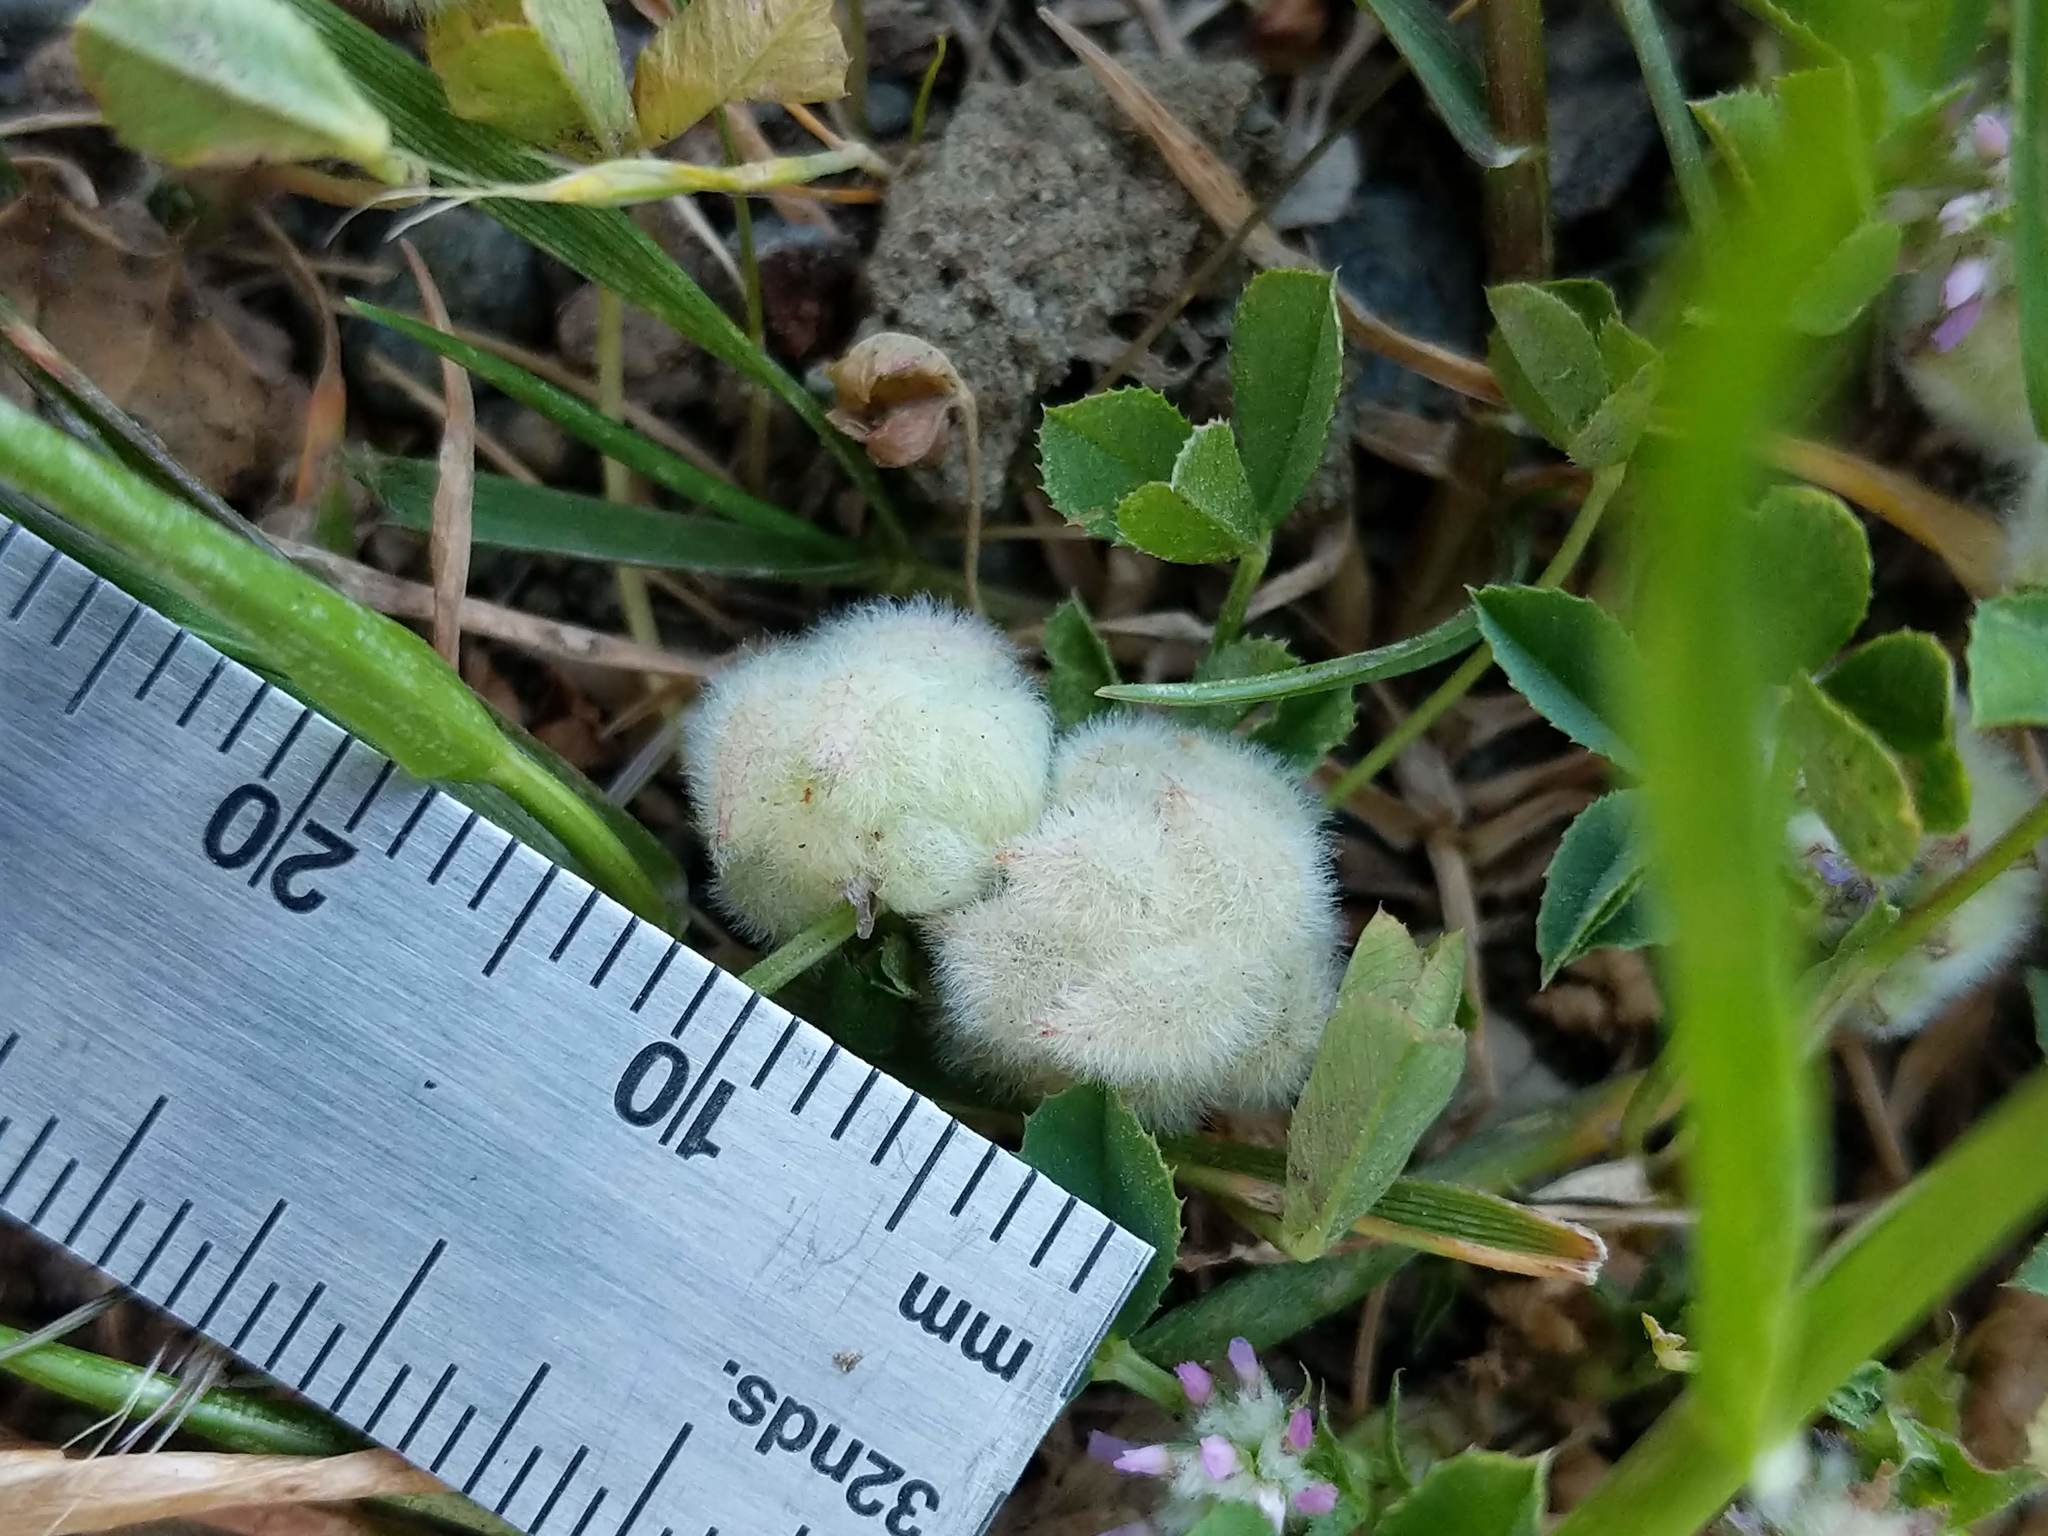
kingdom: Plantae
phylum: Tracheophyta
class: Magnoliopsida
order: Fabales
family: Fabaceae
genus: Trifolium
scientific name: Trifolium tomentosum
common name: Woolly clover
